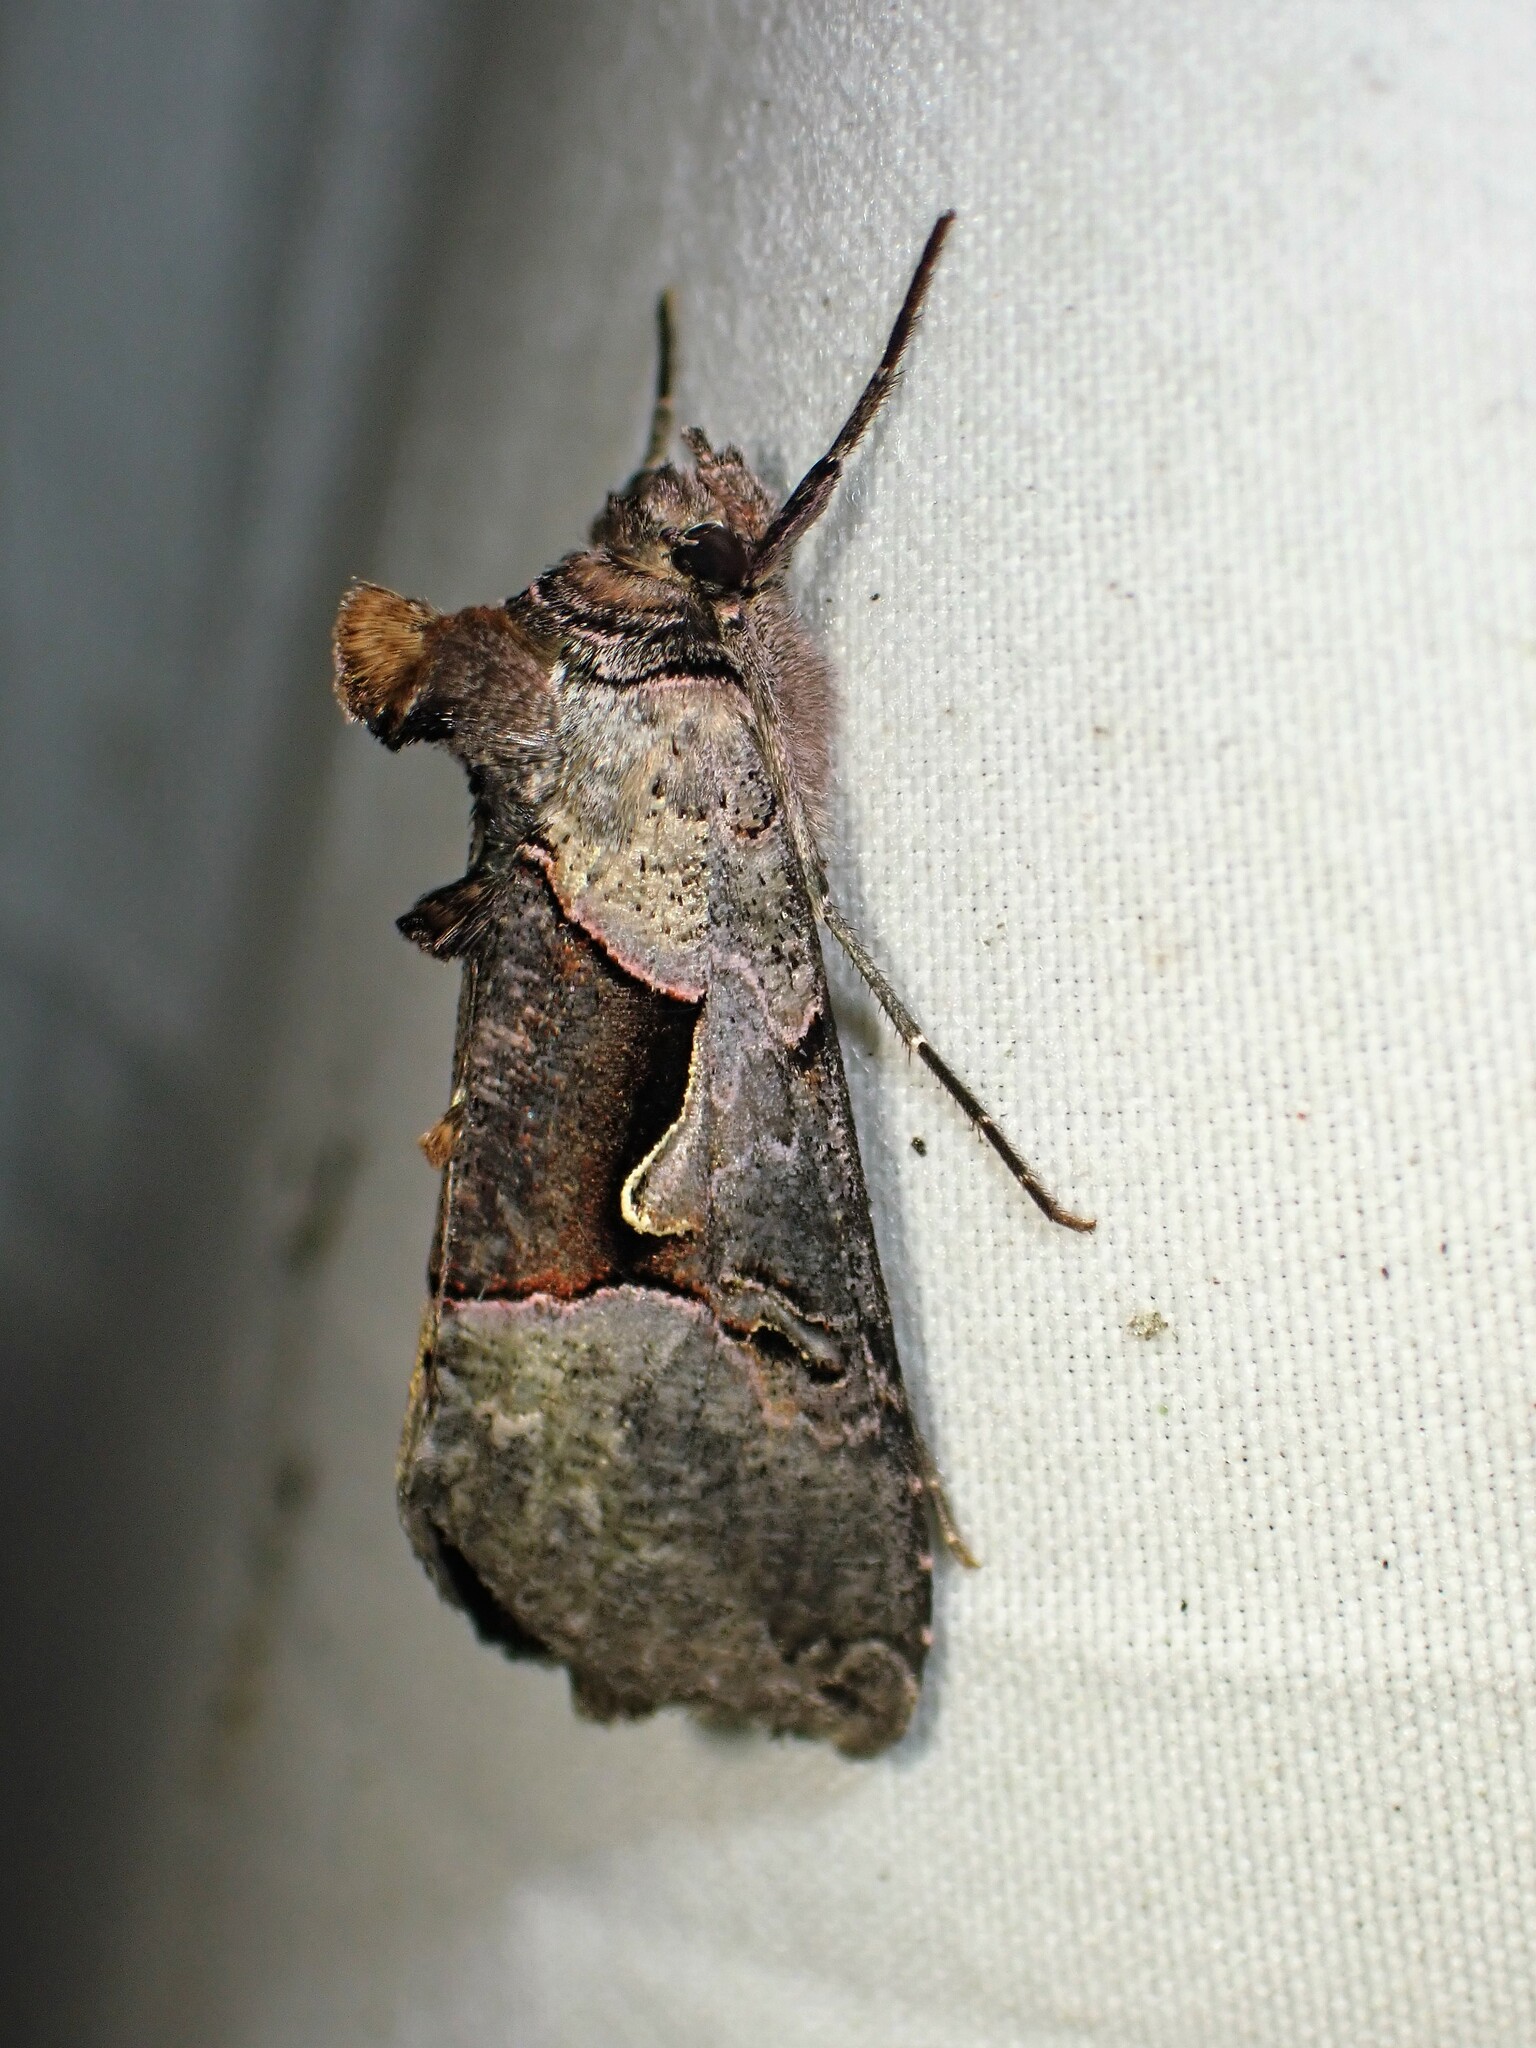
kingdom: Animalia
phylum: Arthropoda
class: Insecta
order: Lepidoptera
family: Noctuidae
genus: Autographa
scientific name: Autographa ampla
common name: Large looper moth
